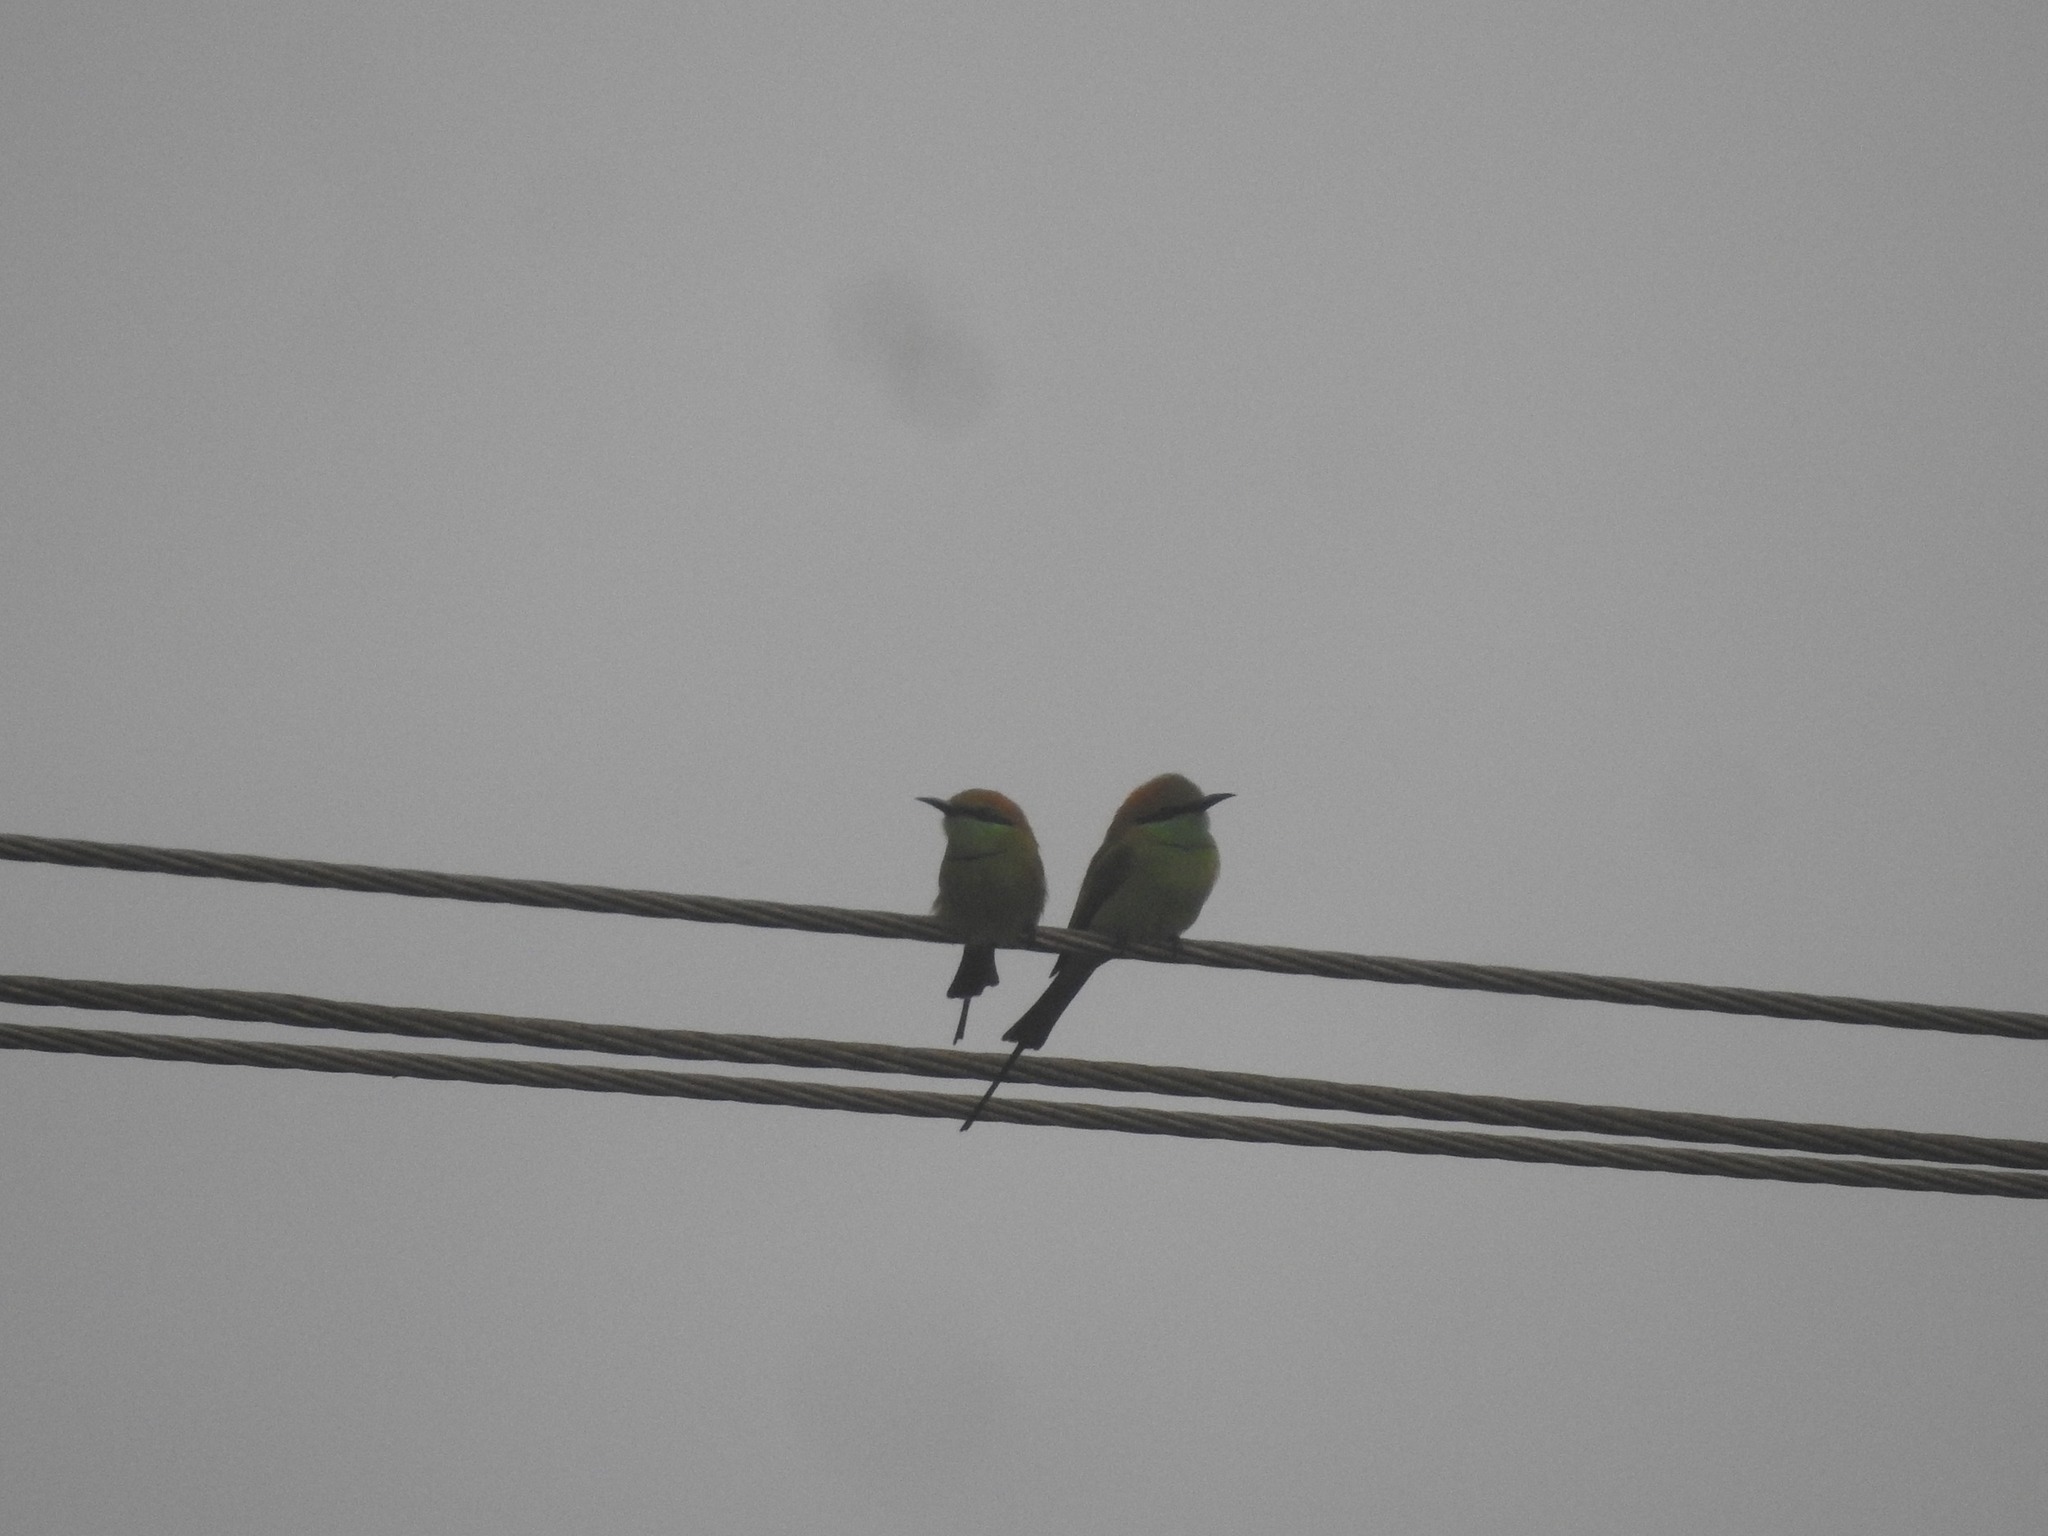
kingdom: Animalia
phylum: Chordata
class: Aves
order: Coraciiformes
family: Meropidae
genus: Merops
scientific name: Merops orientalis
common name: Green bee-eater
